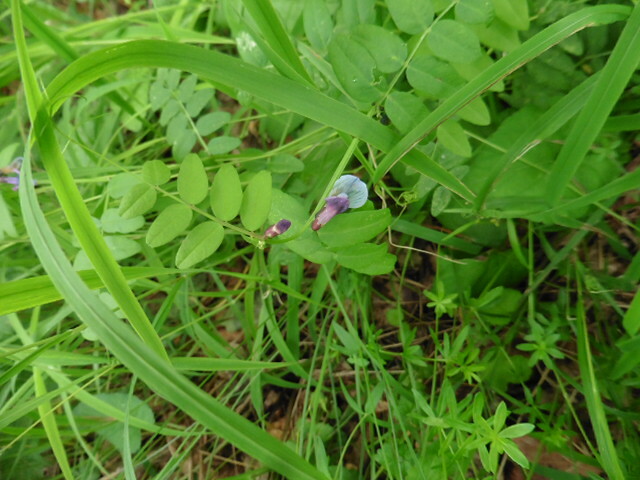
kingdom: Plantae
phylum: Tracheophyta
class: Magnoliopsida
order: Fabales
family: Fabaceae
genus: Vicia
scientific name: Vicia sepium
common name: Bush vetch
